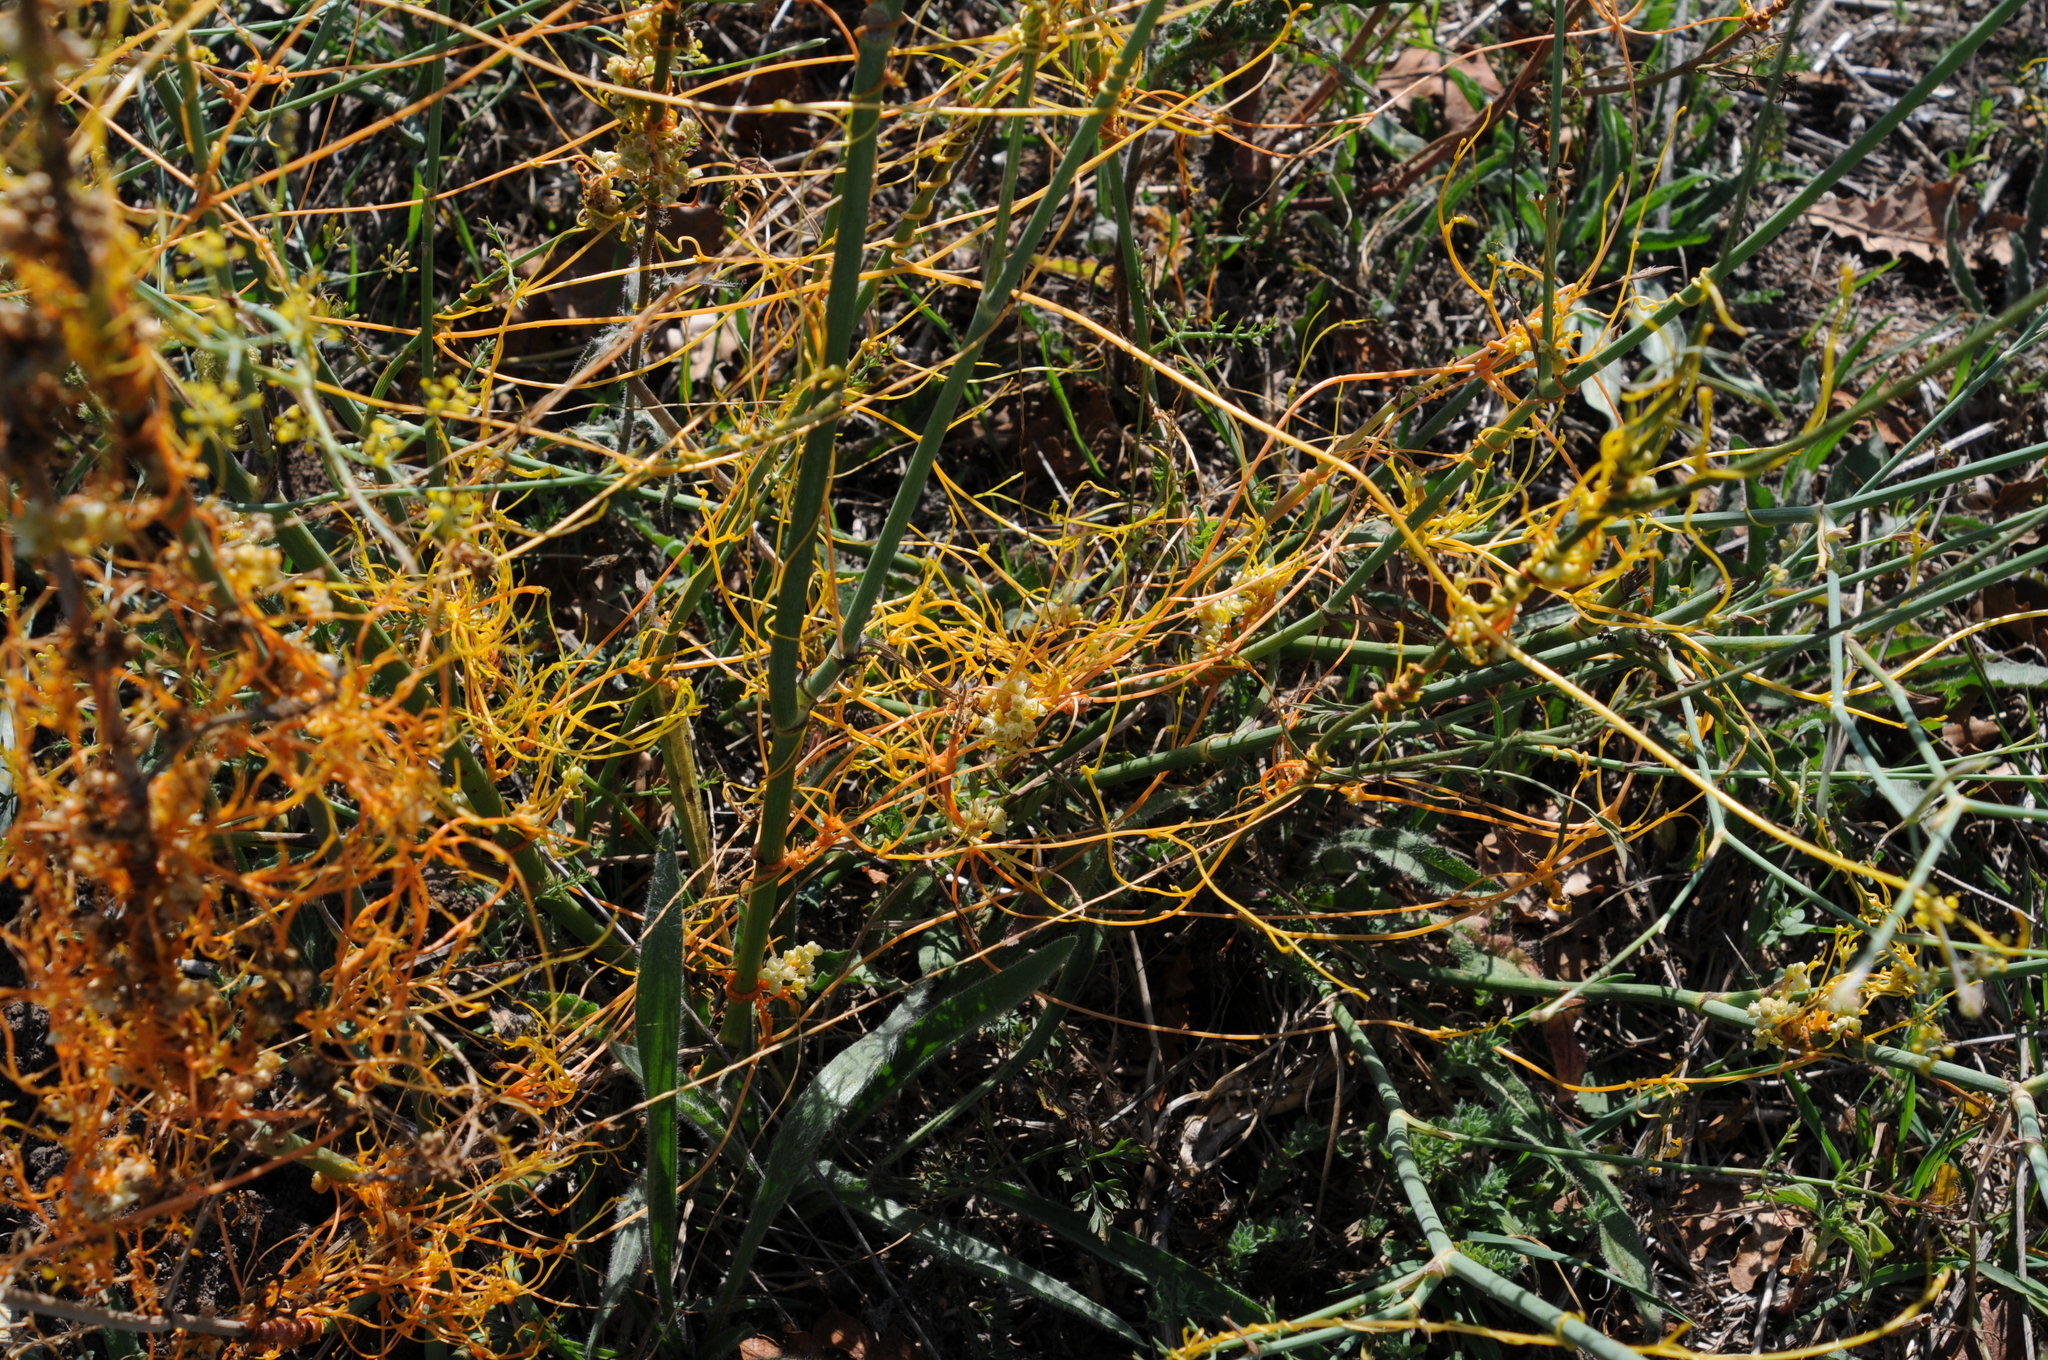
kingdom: Plantae
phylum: Tracheophyta
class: Magnoliopsida
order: Solanales
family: Convolvulaceae
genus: Cuscuta
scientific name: Cuscuta campestris
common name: Yellow dodder
